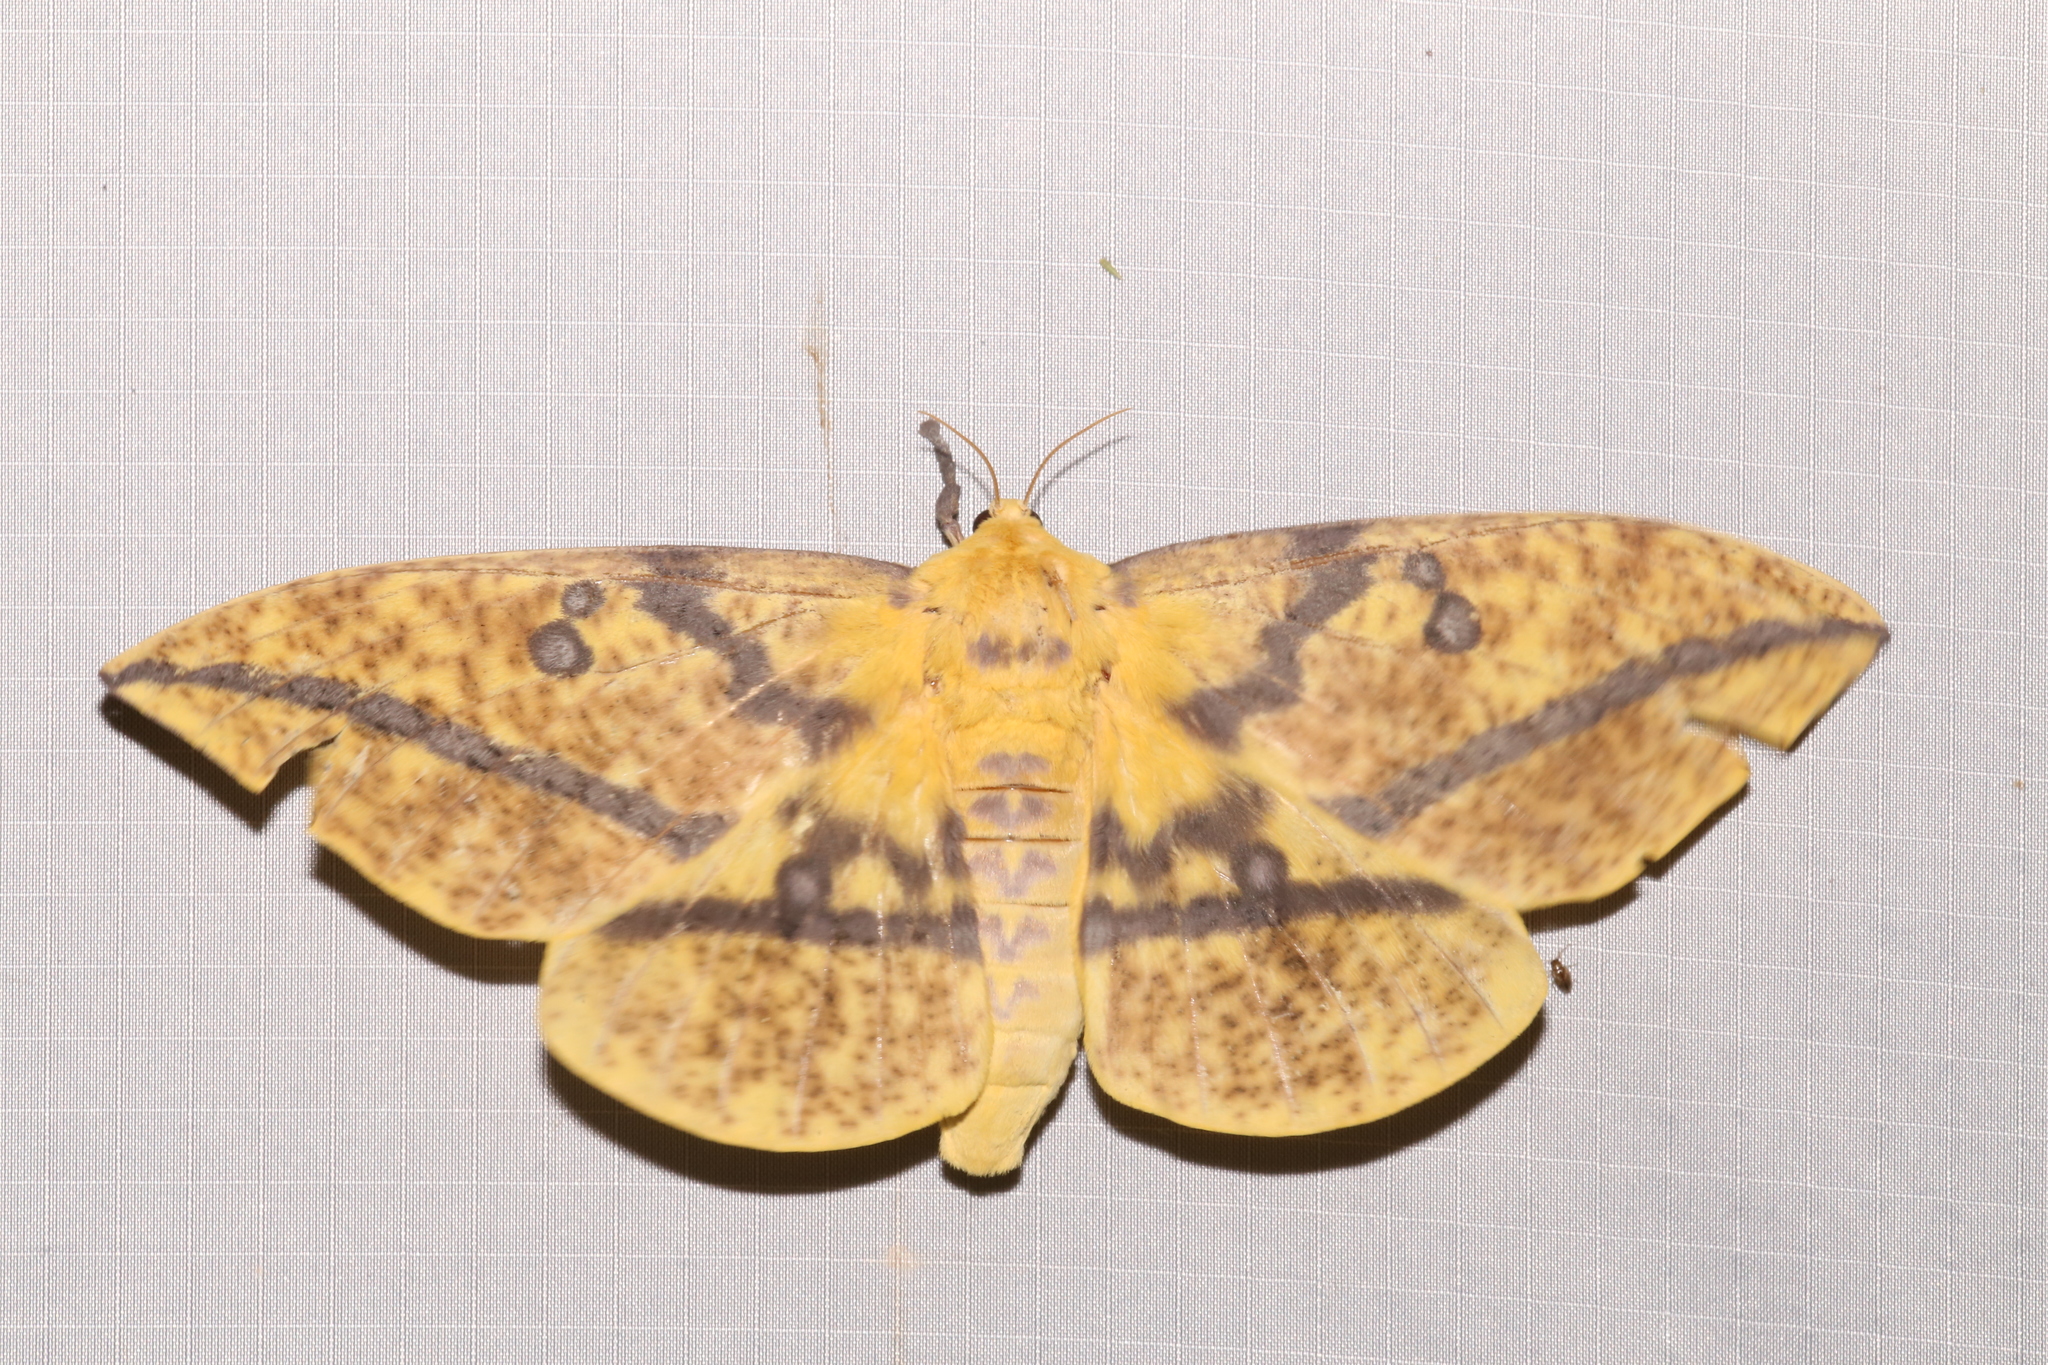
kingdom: Animalia
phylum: Arthropoda
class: Insecta
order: Lepidoptera
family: Saturniidae
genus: Eacles
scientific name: Eacles oslari
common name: Oslar's imperial moth
